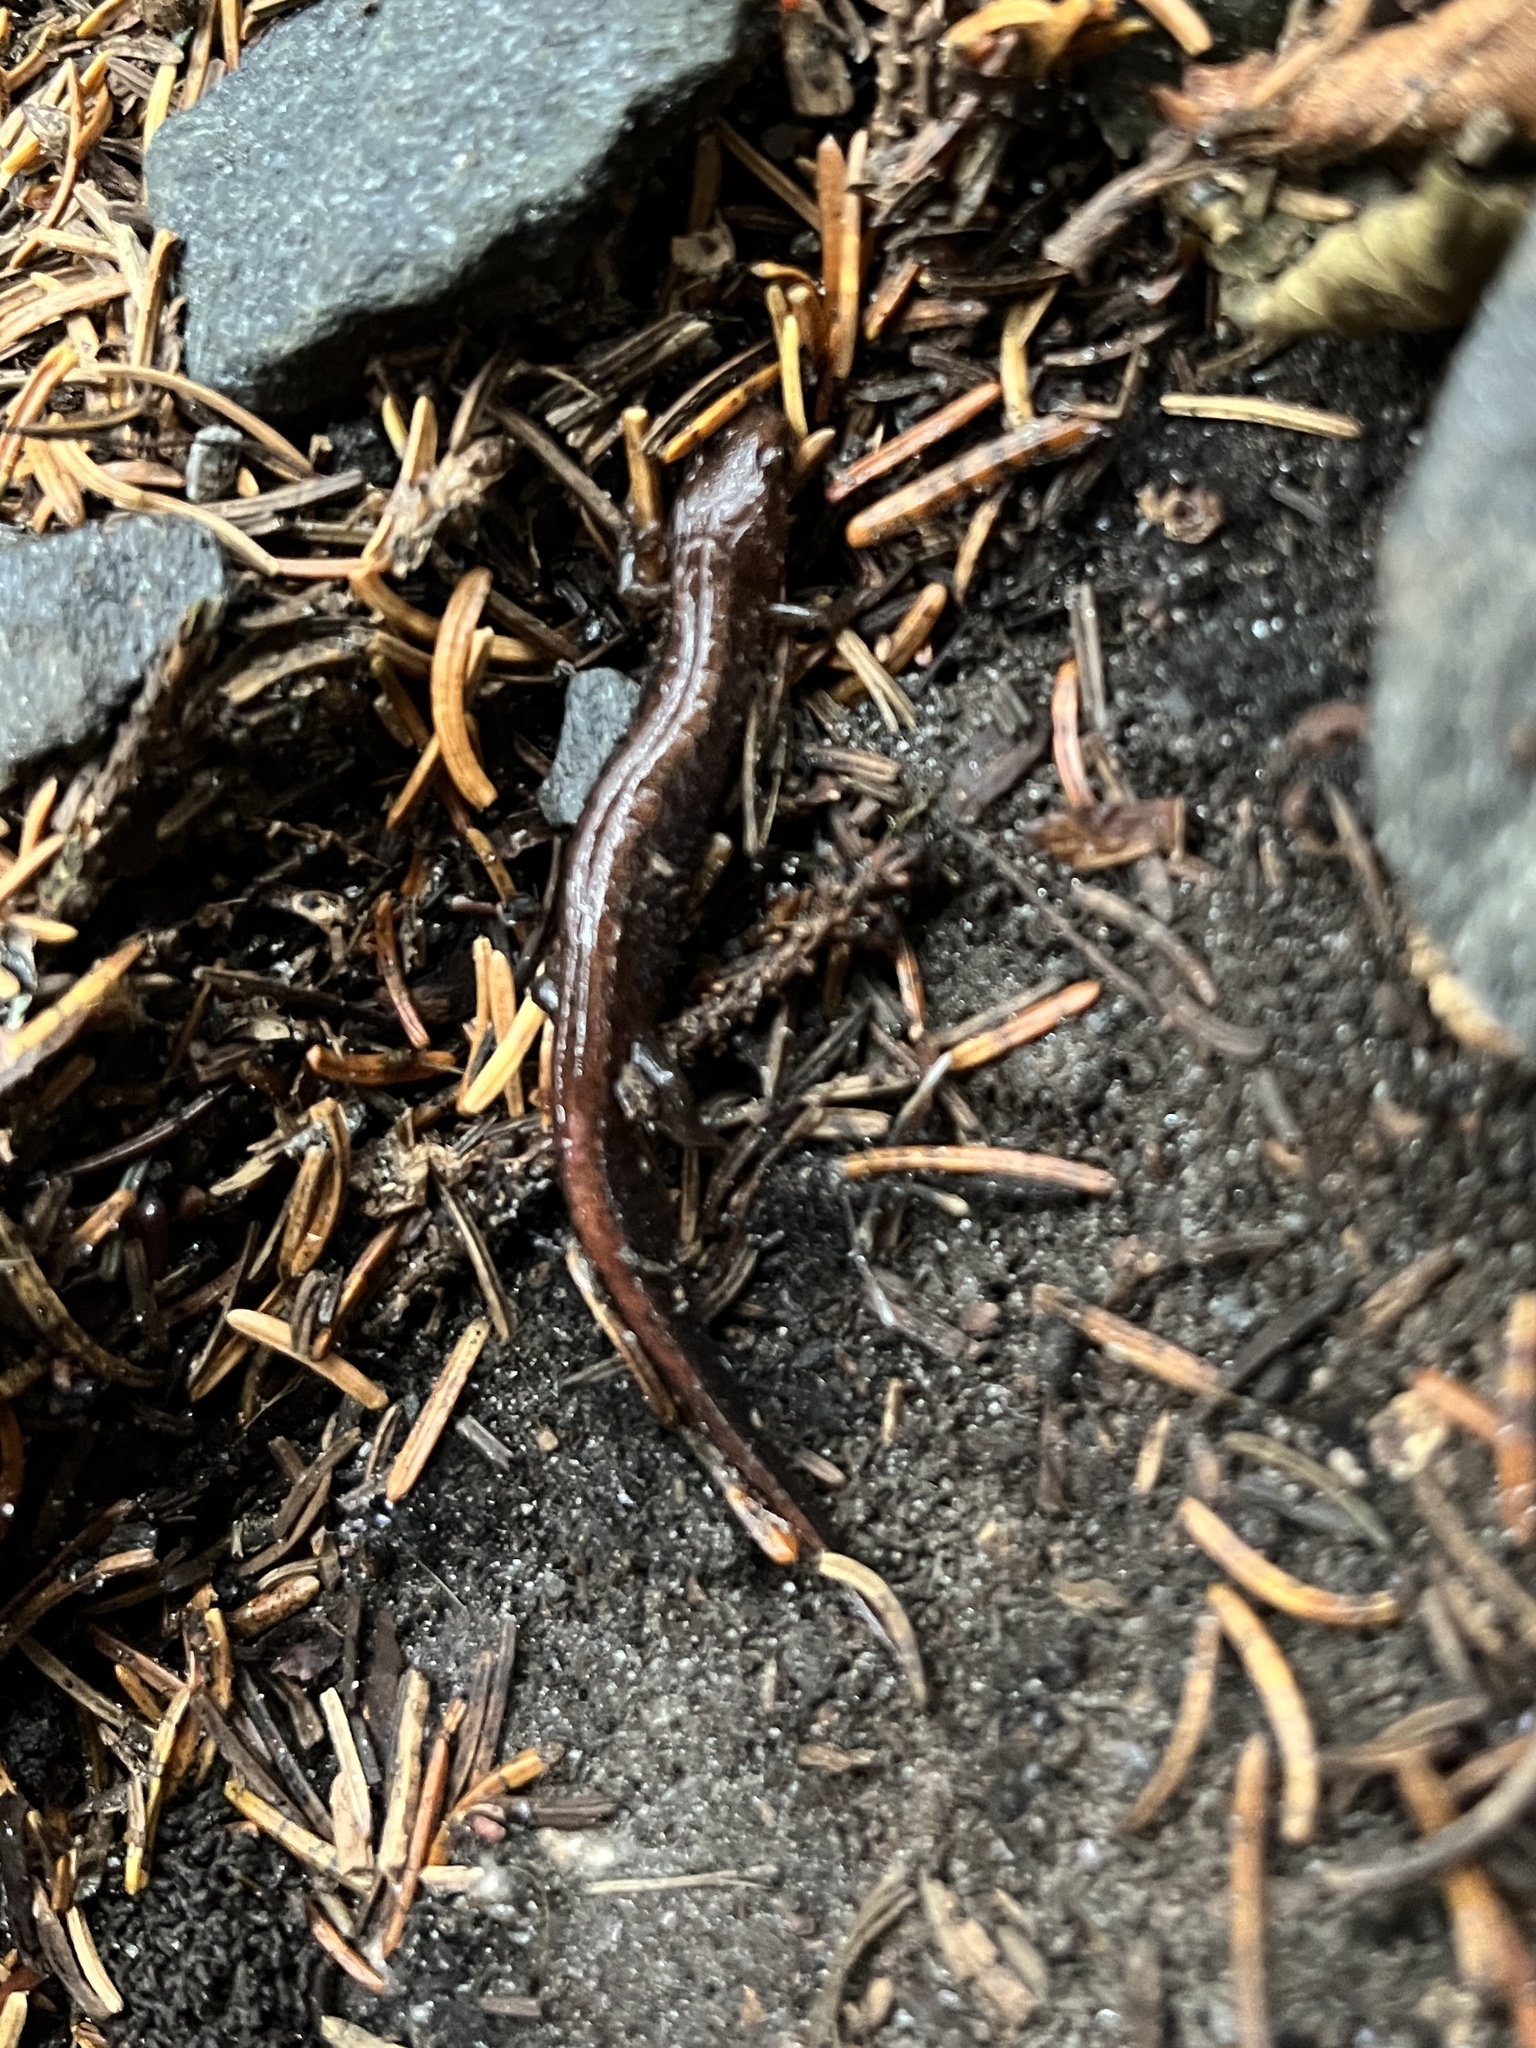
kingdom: Animalia
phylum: Chordata
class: Amphibia
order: Caudata
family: Plethodontidae
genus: Desmognathus
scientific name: Desmognathus orestes
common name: Blue ridge dusky salamander
